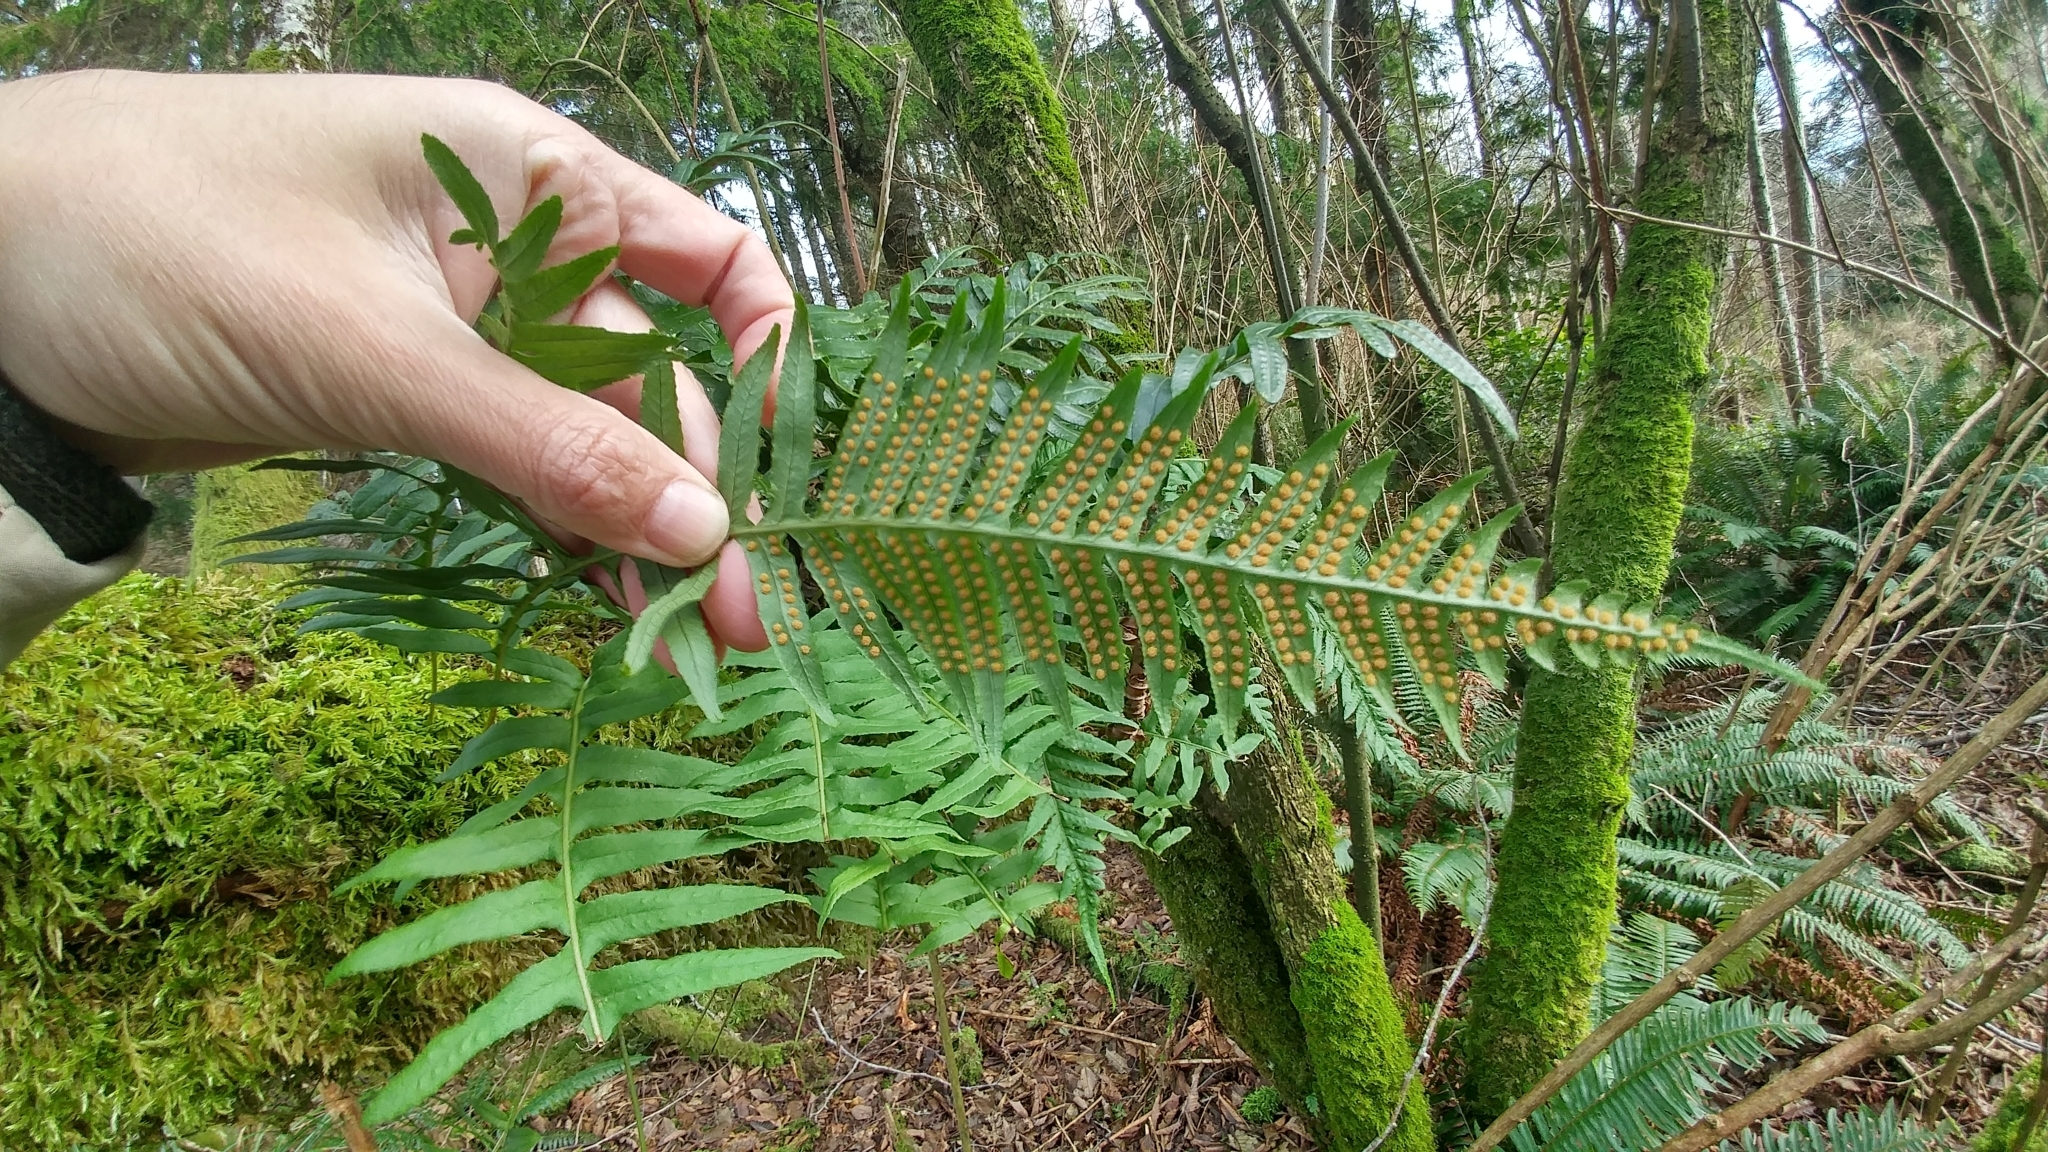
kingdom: Plantae
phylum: Tracheophyta
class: Polypodiopsida
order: Polypodiales
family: Polypodiaceae
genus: Polypodium
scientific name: Polypodium glycyrrhiza
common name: Licorice fern
